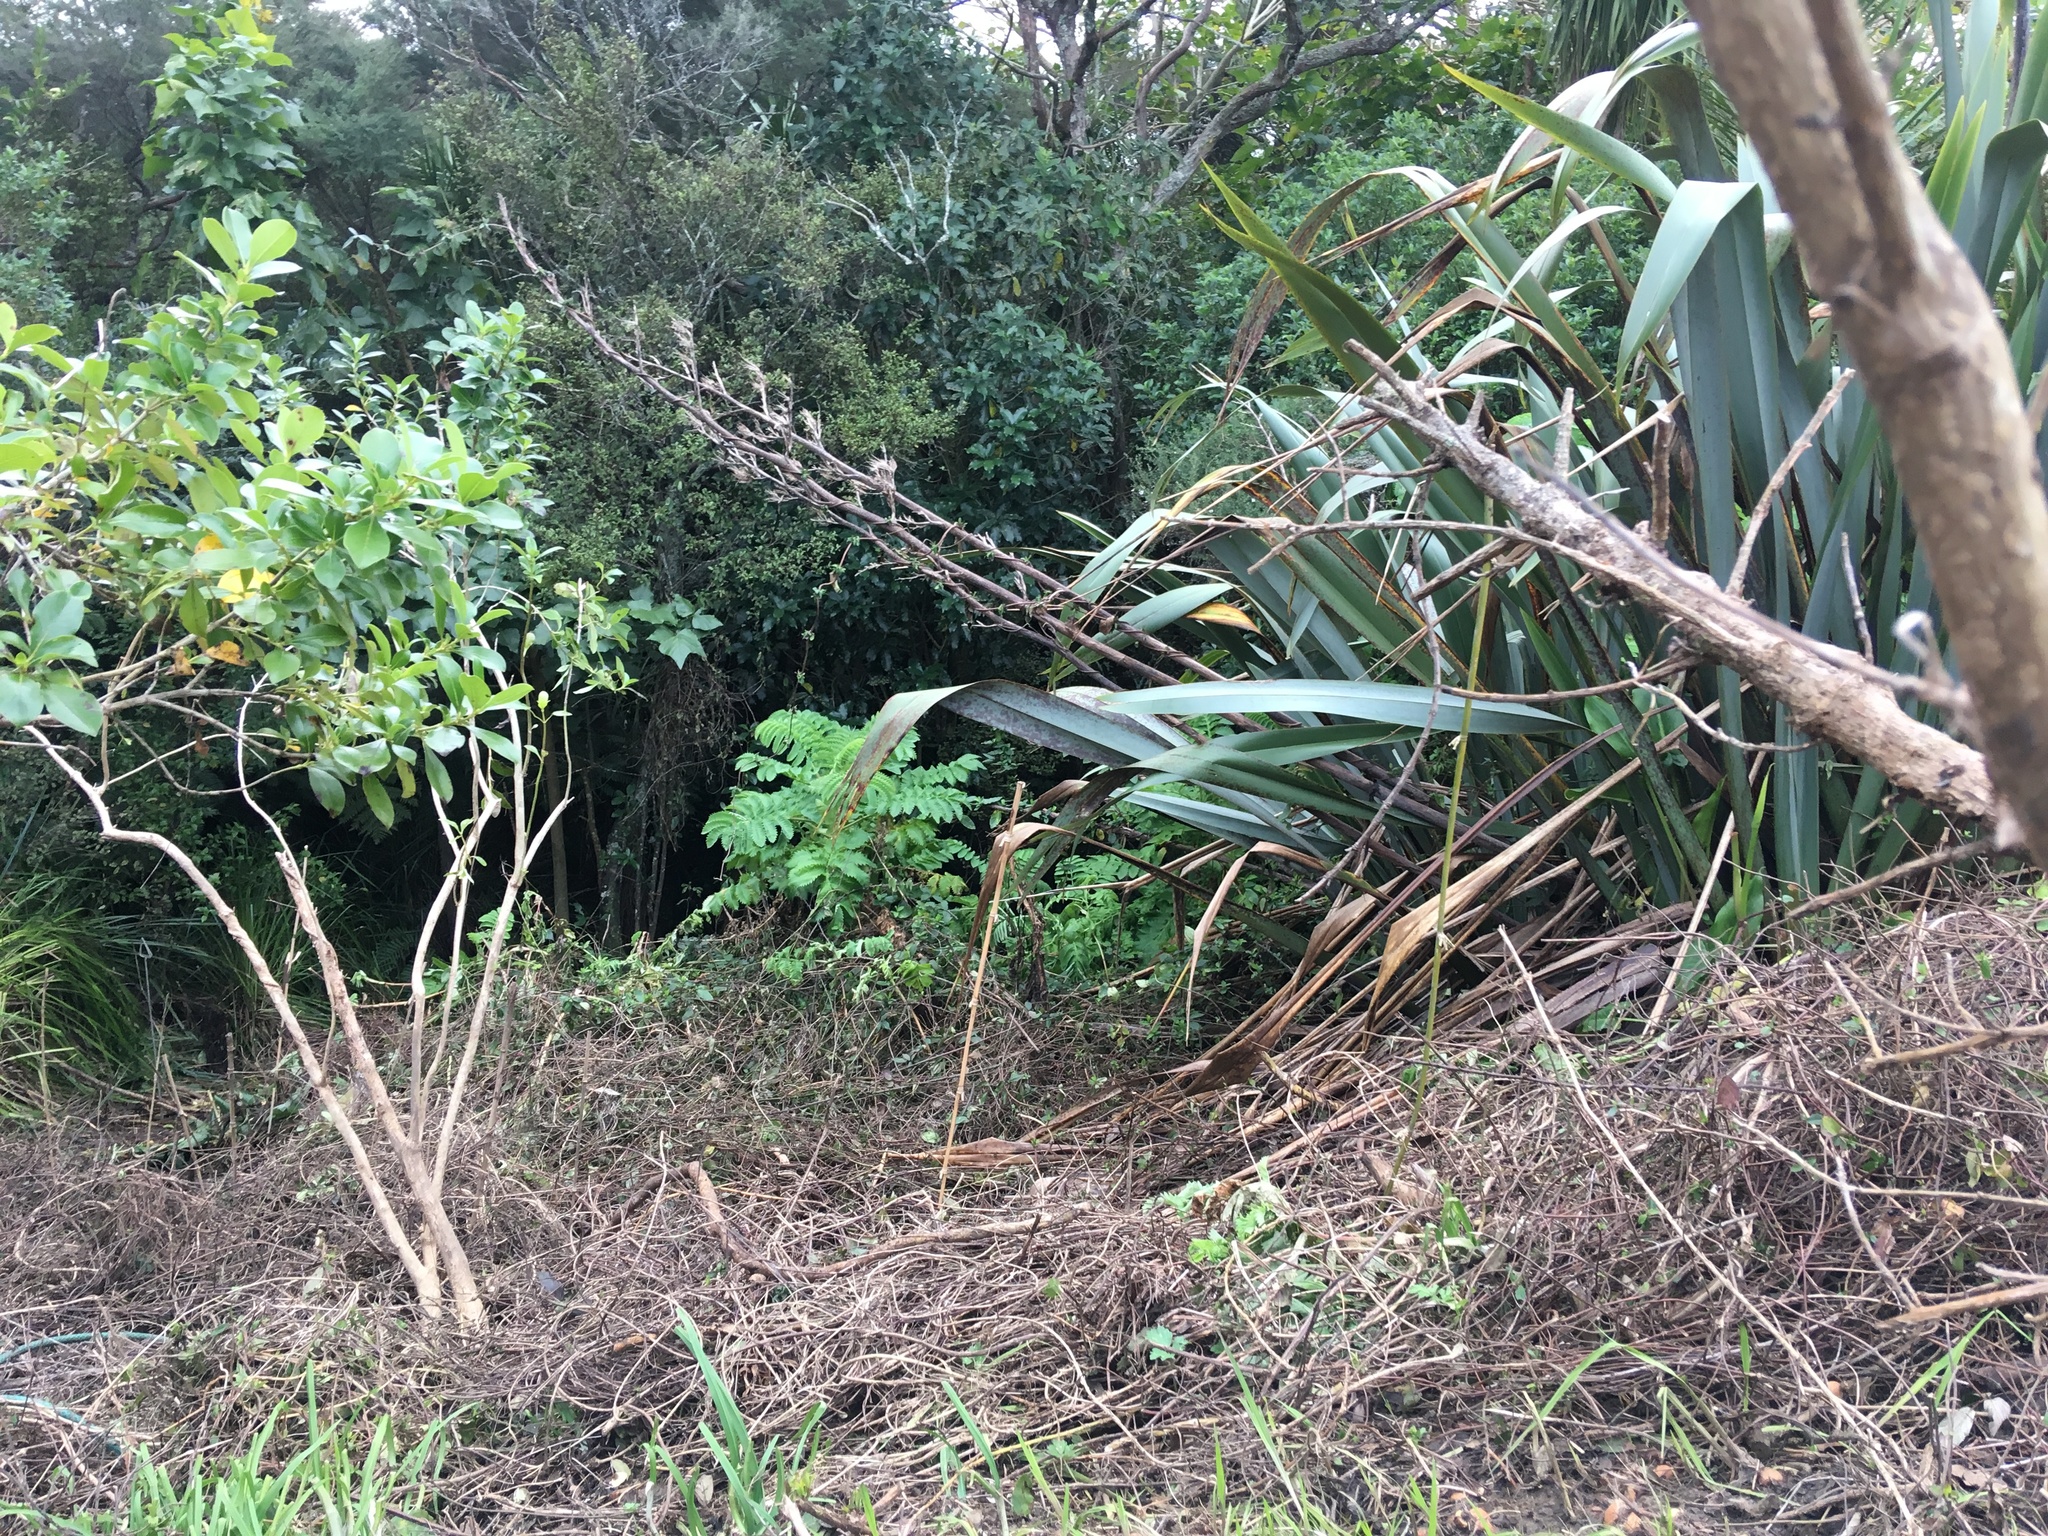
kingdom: Plantae
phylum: Tracheophyta
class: Magnoliopsida
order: Geraniales
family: Melianthaceae
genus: Melianthus
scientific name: Melianthus major
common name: Honey-flower
